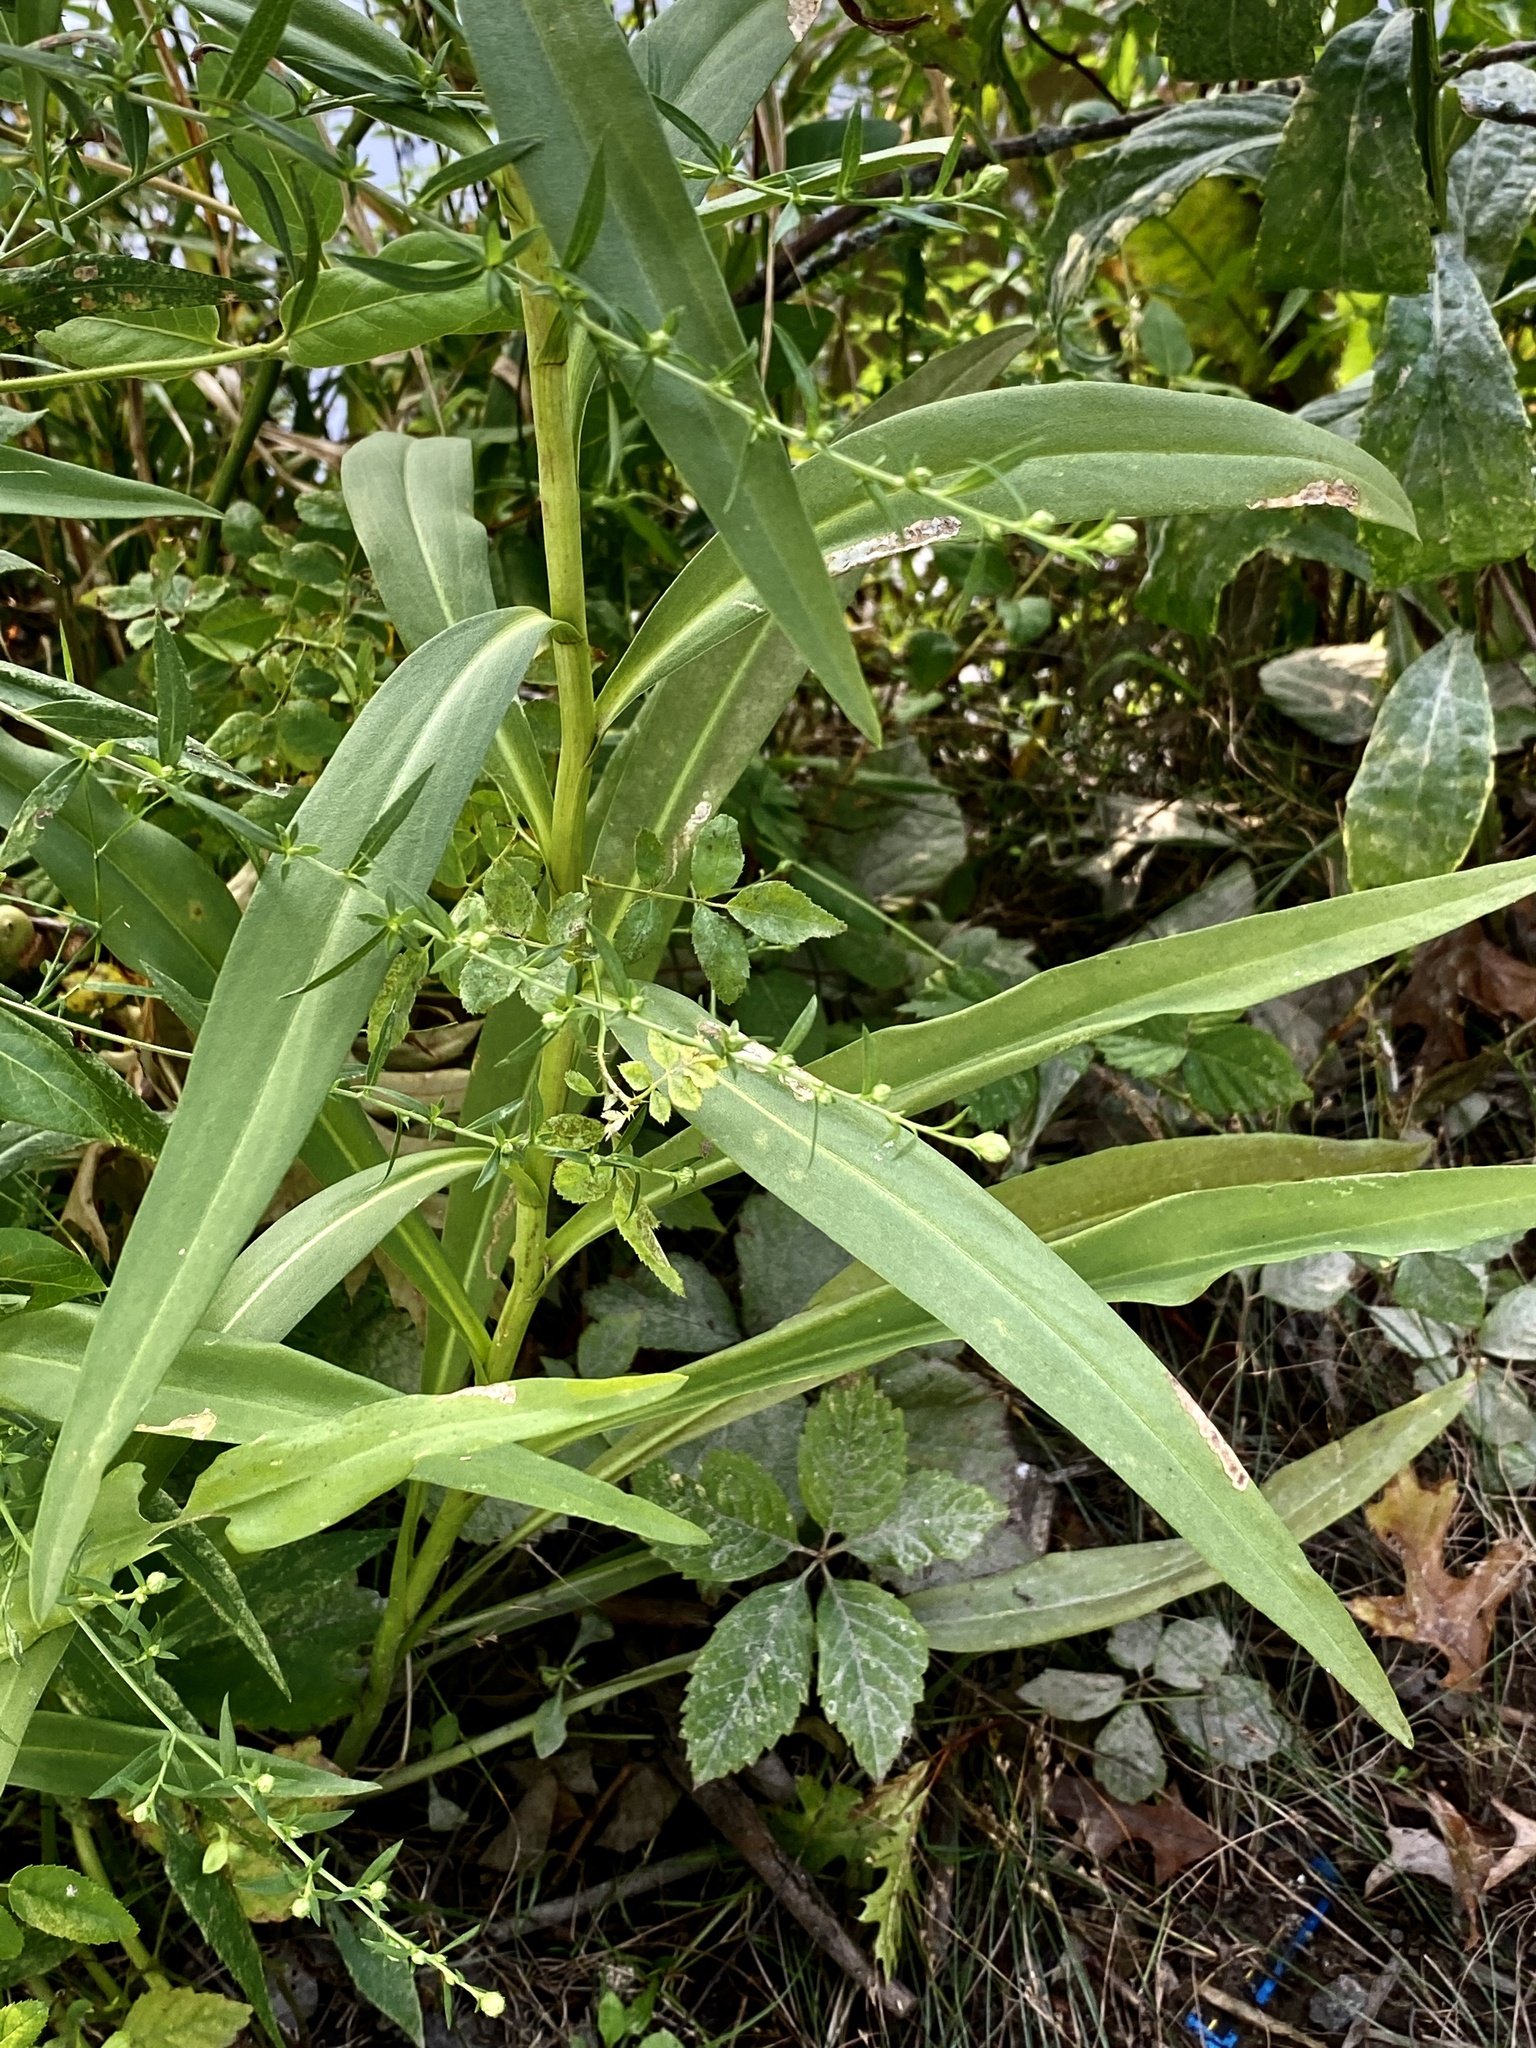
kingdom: Plantae
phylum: Tracheophyta
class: Magnoliopsida
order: Asterales
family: Asteraceae
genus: Solidago
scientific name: Solidago sempervirens
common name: Salt-marsh goldenrod
